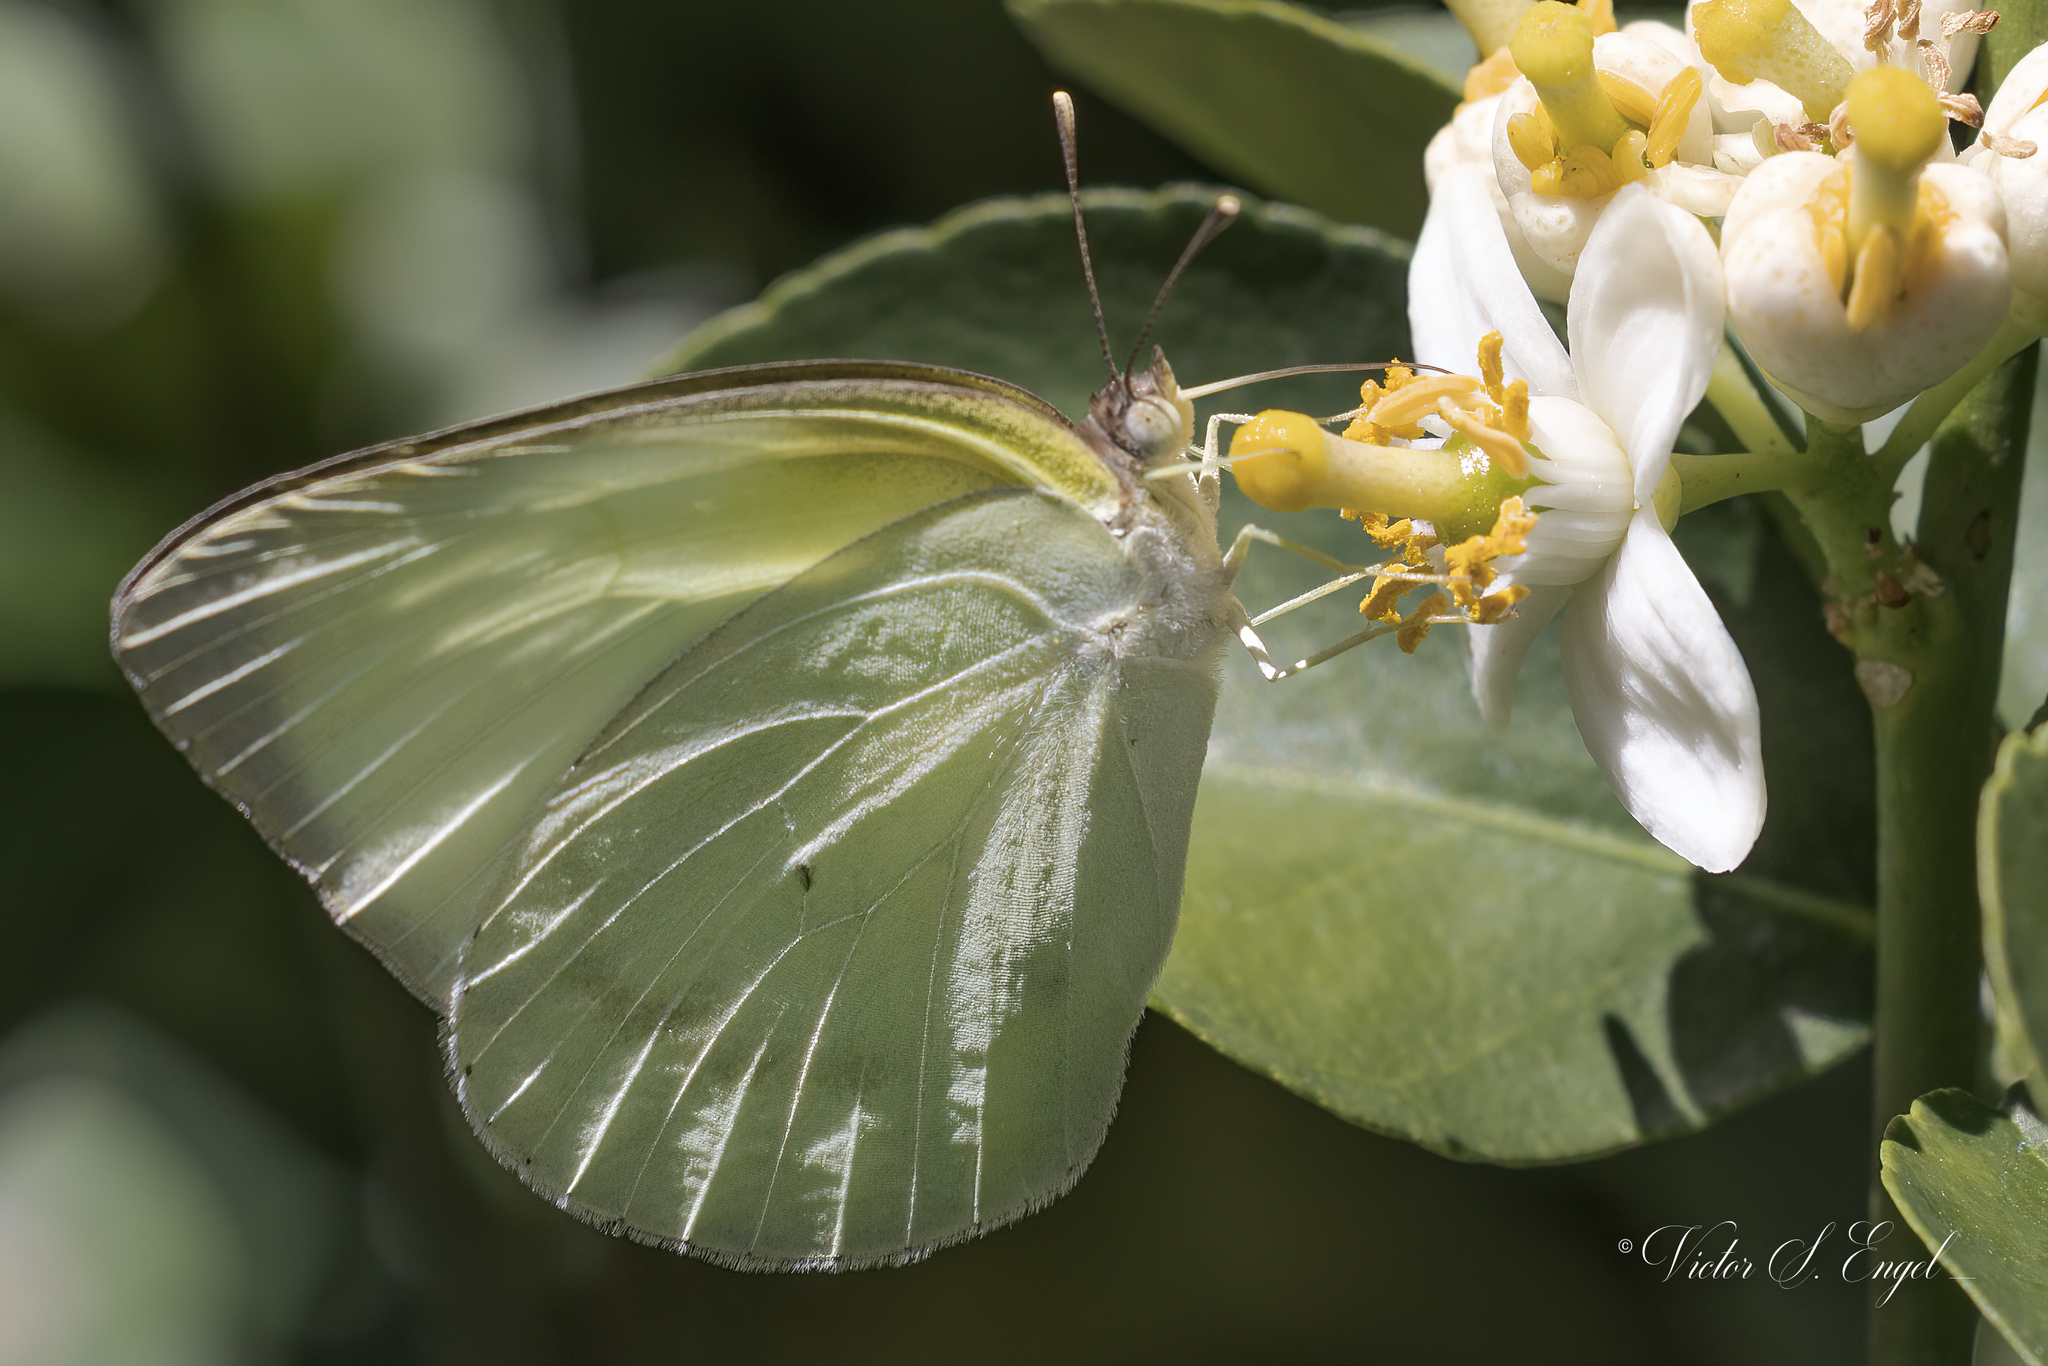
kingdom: Animalia
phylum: Arthropoda
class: Insecta
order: Lepidoptera
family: Pieridae
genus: Kricogonia
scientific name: Kricogonia lyside
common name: Guayacan sulphur,
